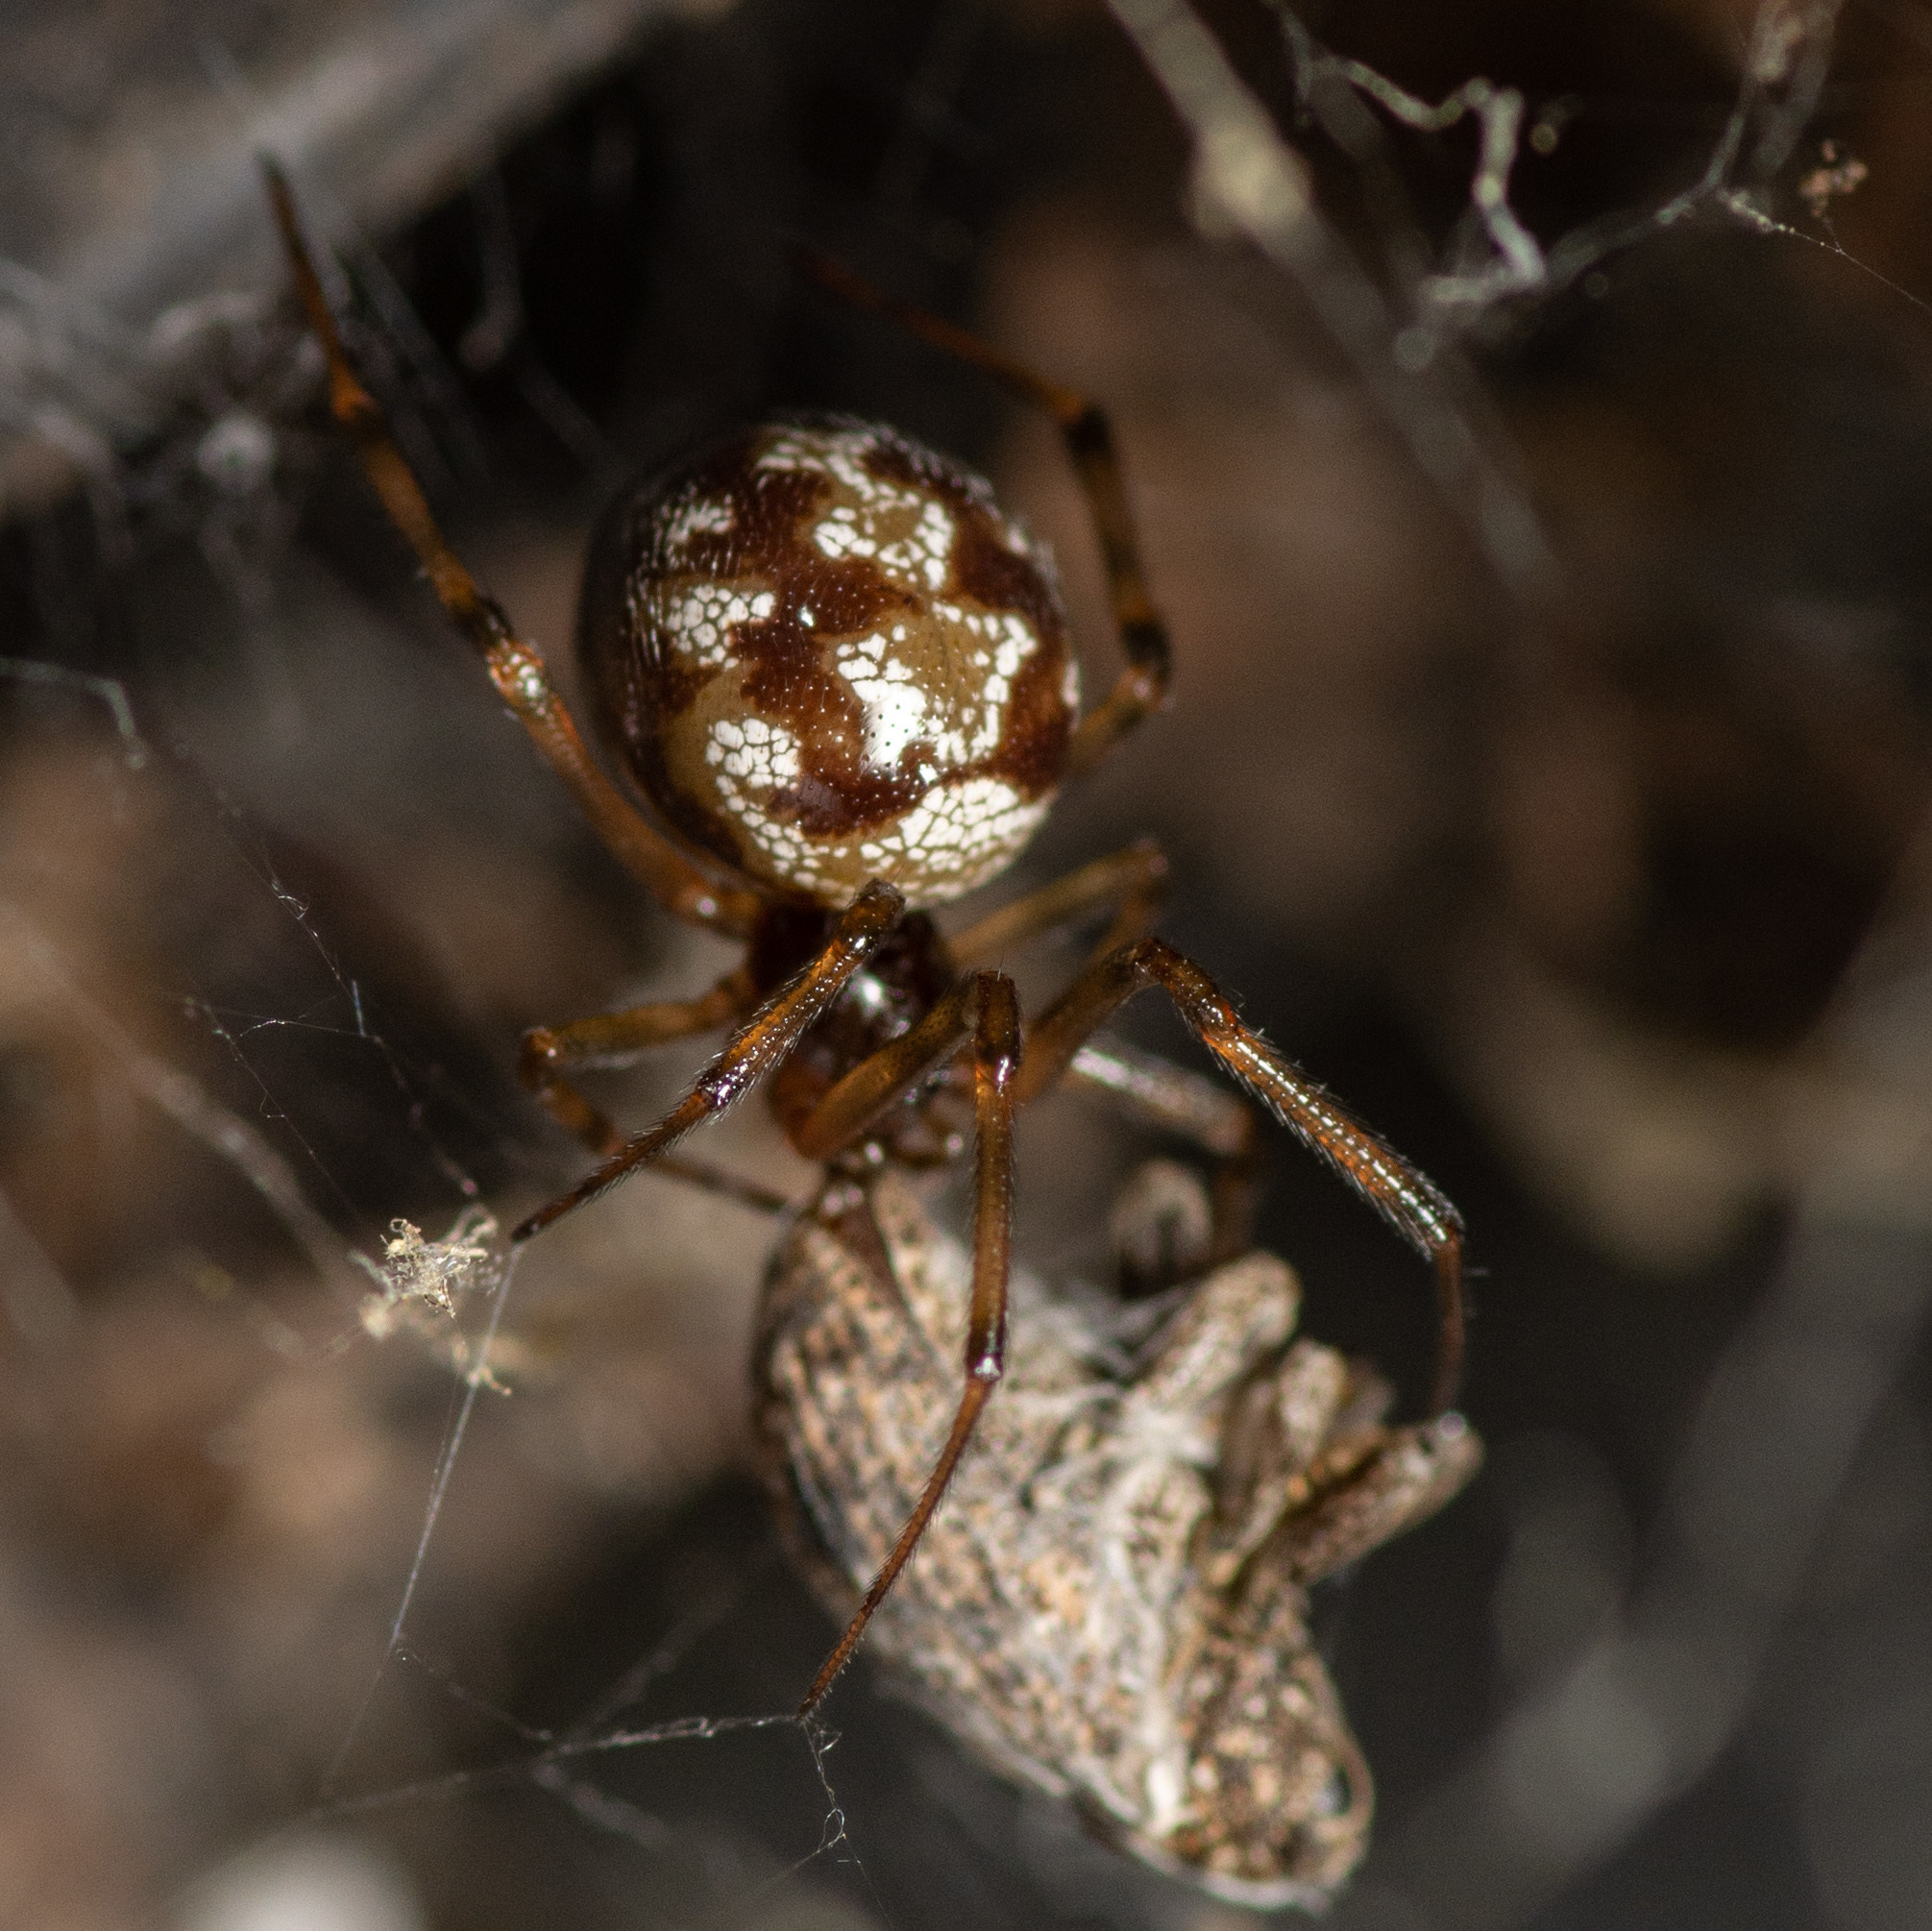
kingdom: Animalia
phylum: Arthropoda
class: Arachnida
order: Araneae
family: Theridiidae
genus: Steatoda
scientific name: Steatoda triangulosa
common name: Triangulate bud spider
